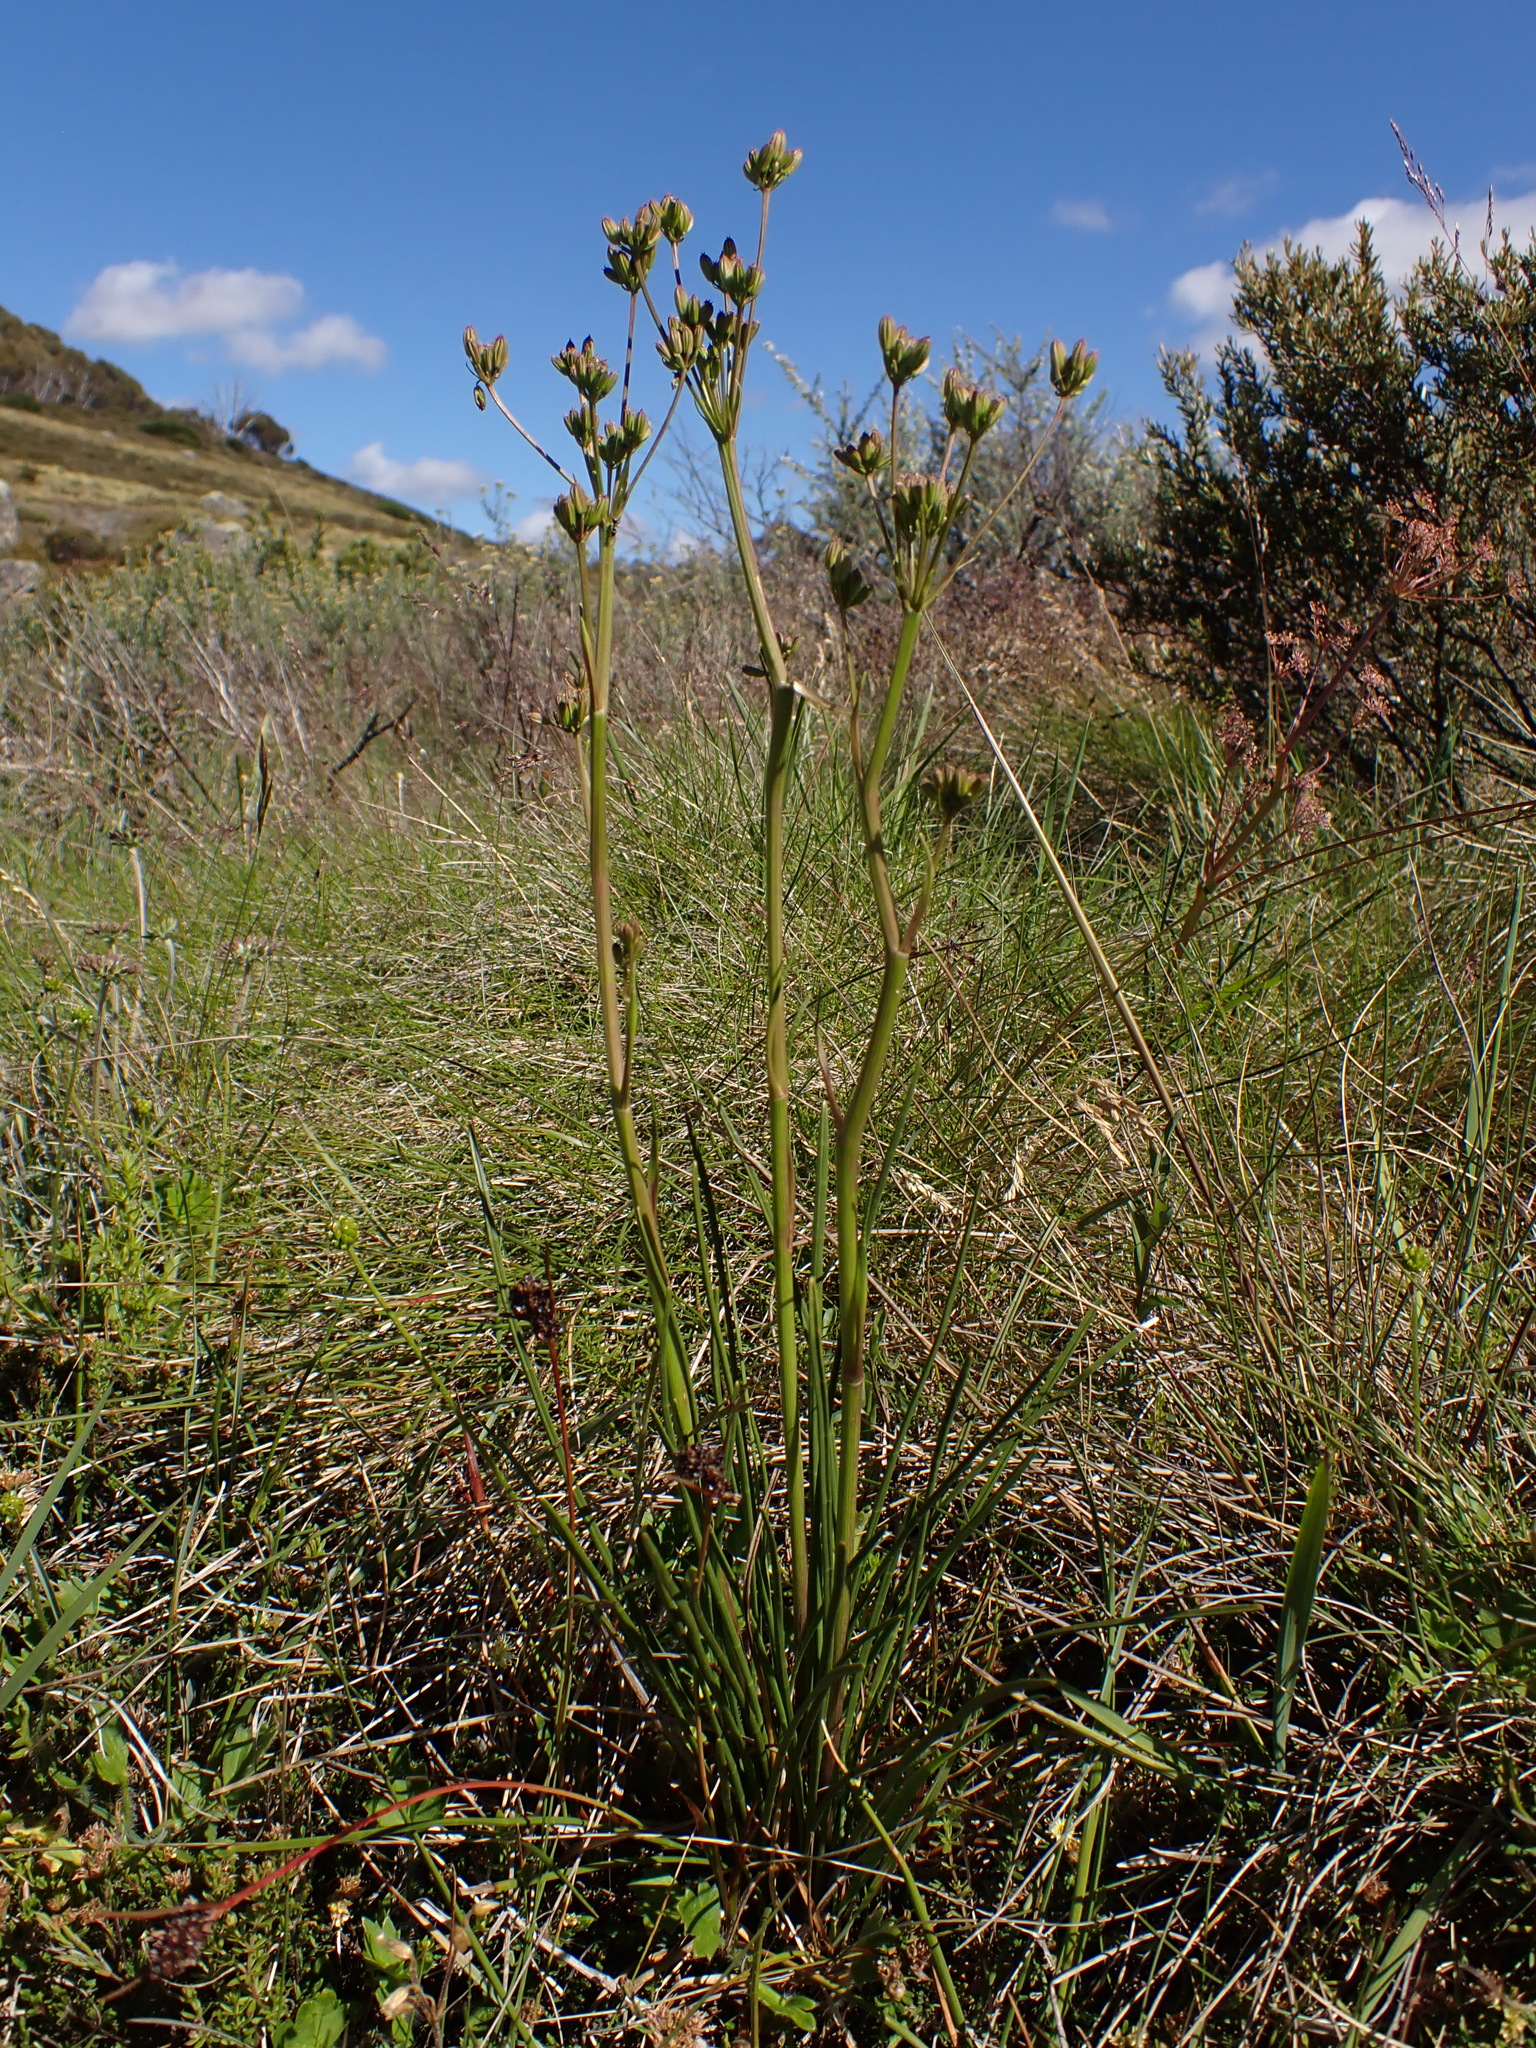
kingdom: Plantae
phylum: Tracheophyta
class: Magnoliopsida
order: Apiales
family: Apiaceae
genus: Aciphylla
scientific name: Aciphylla simplicifolia
